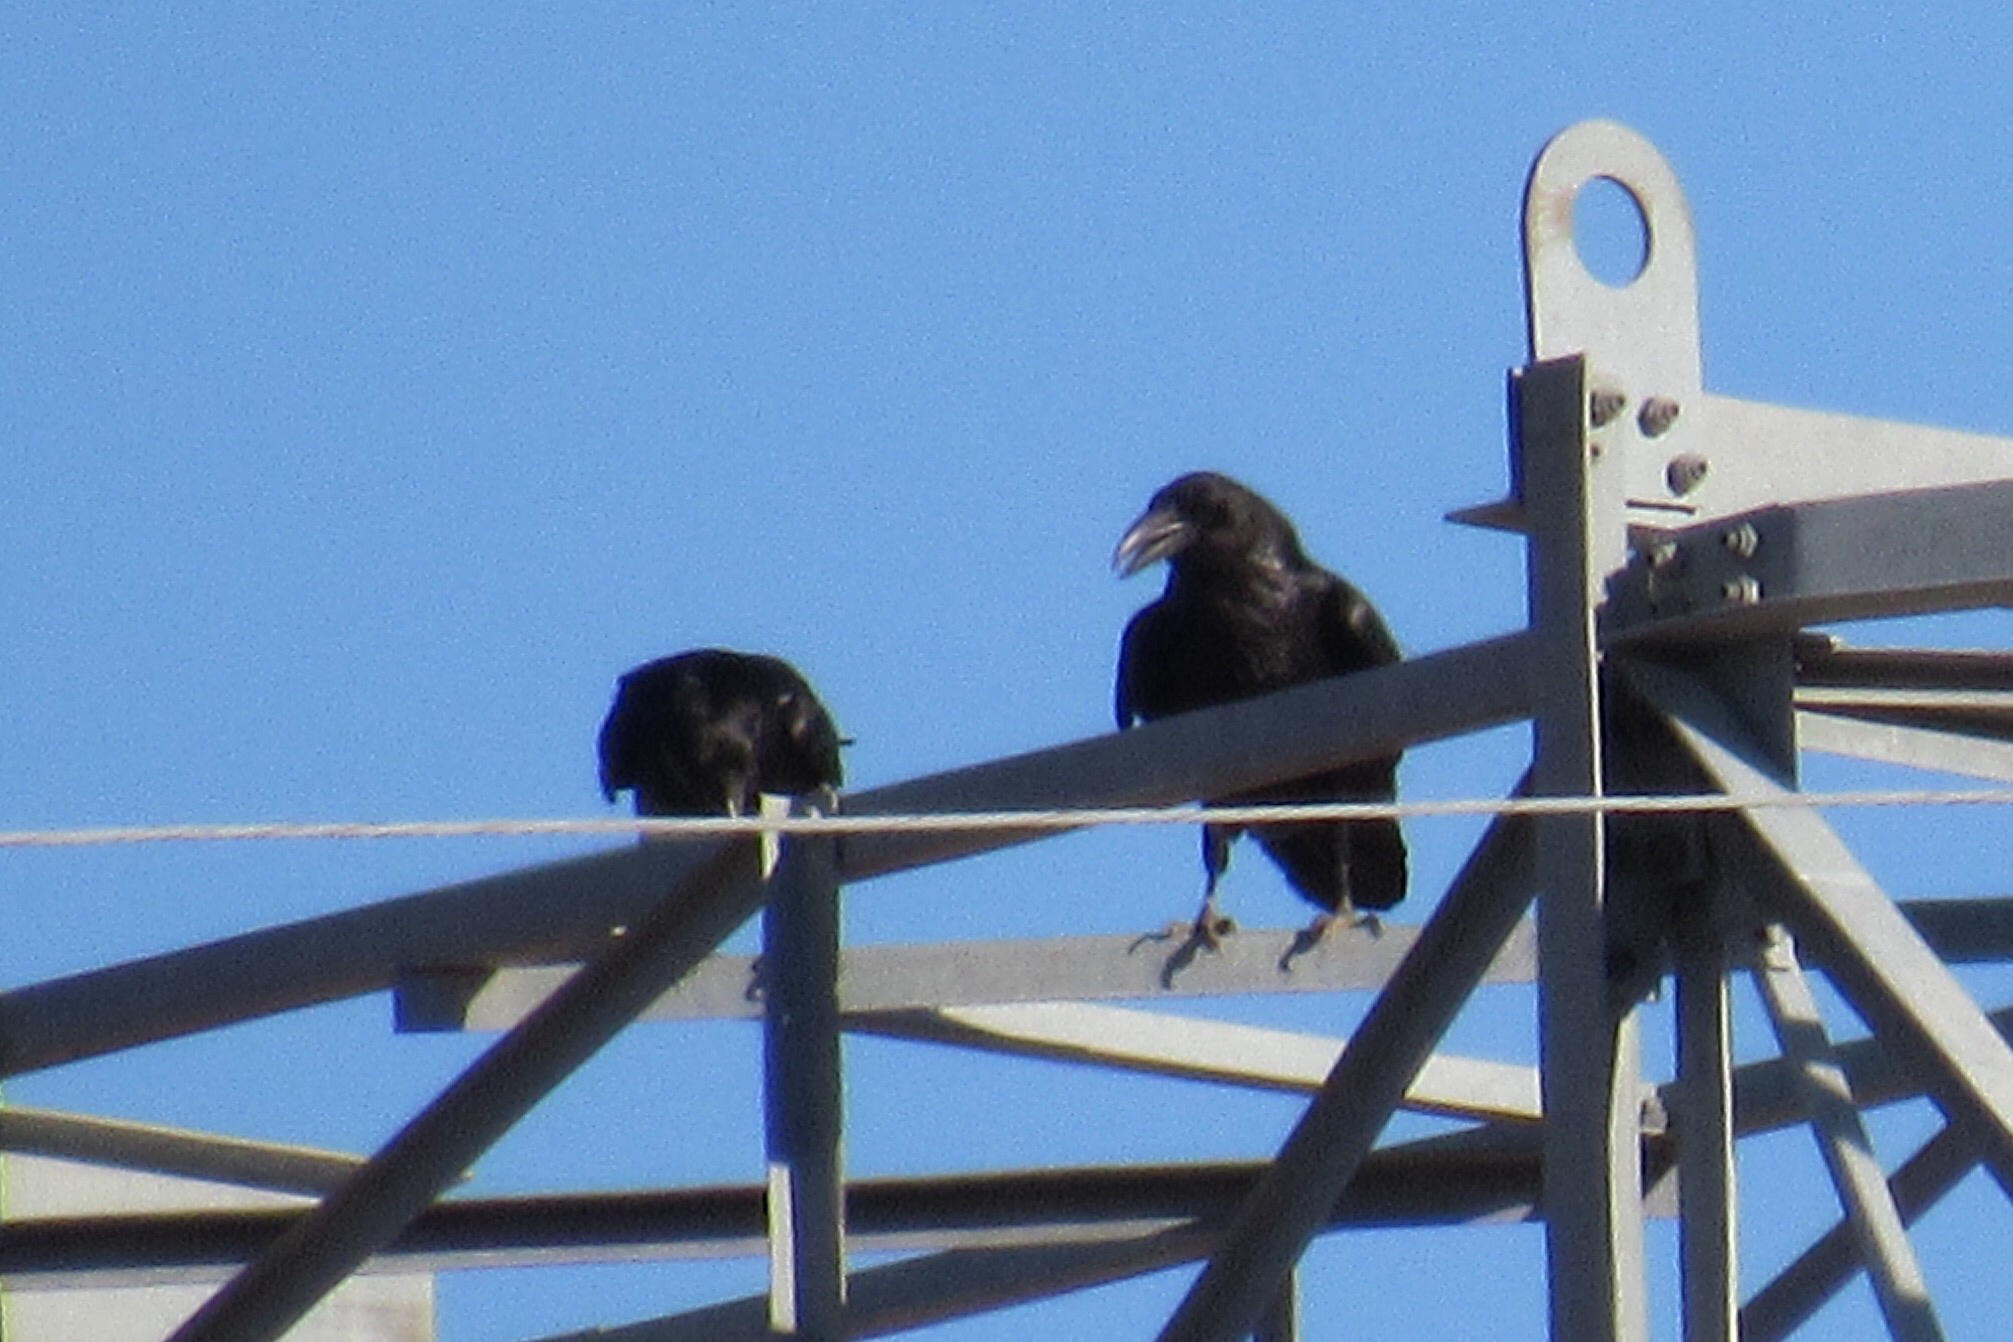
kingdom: Animalia
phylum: Chordata
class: Aves
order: Passeriformes
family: Corvidae
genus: Corvus
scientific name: Corvus corax
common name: Common raven
